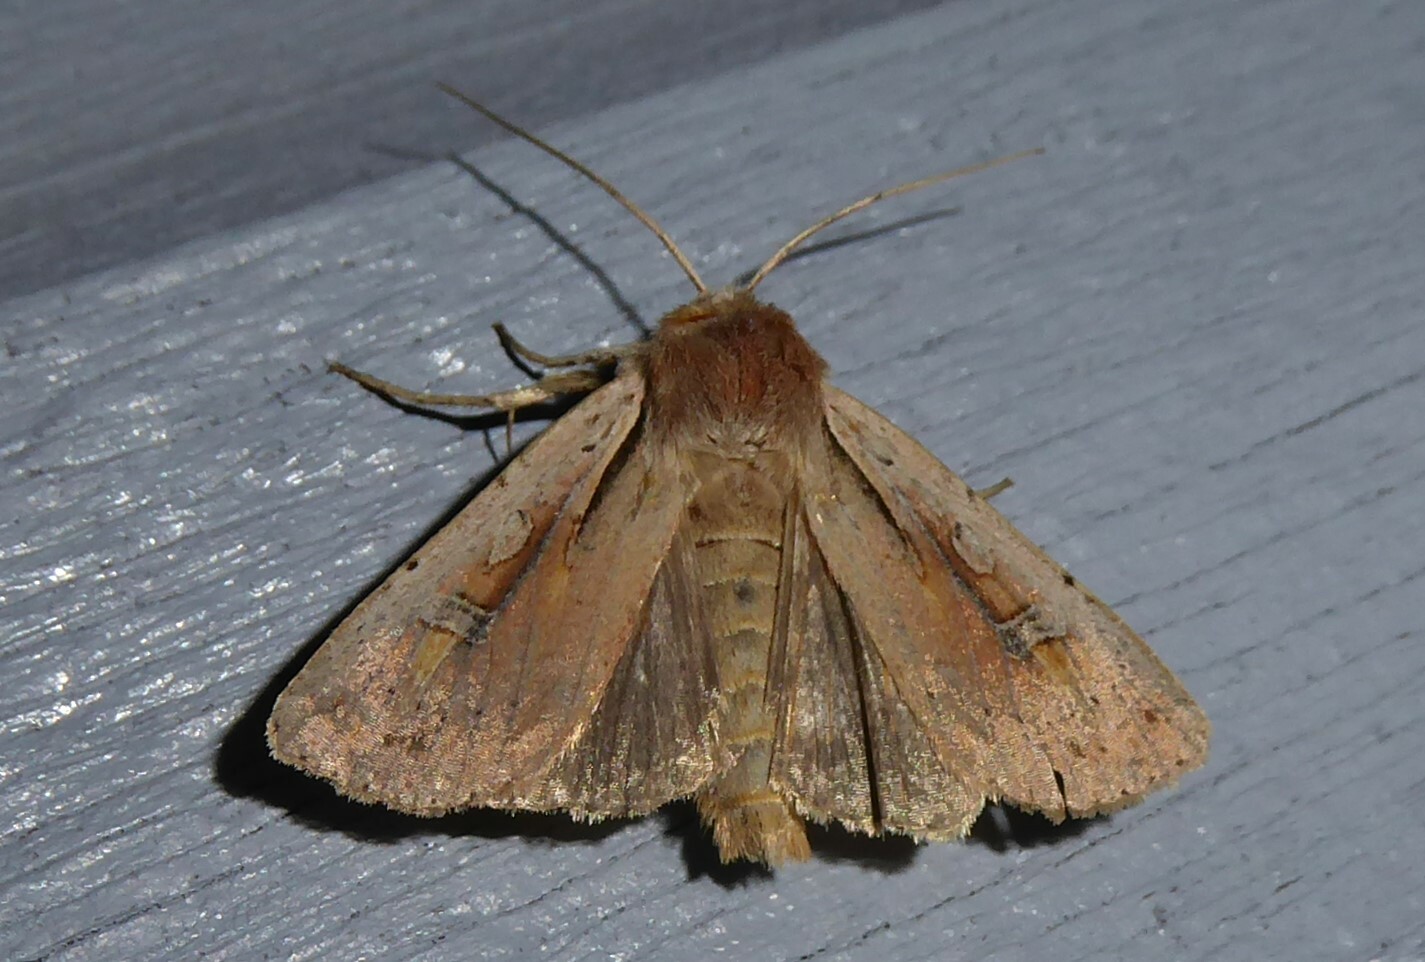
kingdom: Animalia
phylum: Arthropoda
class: Insecta
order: Lepidoptera
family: Noctuidae
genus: Ichneutica
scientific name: Ichneutica atristriga
